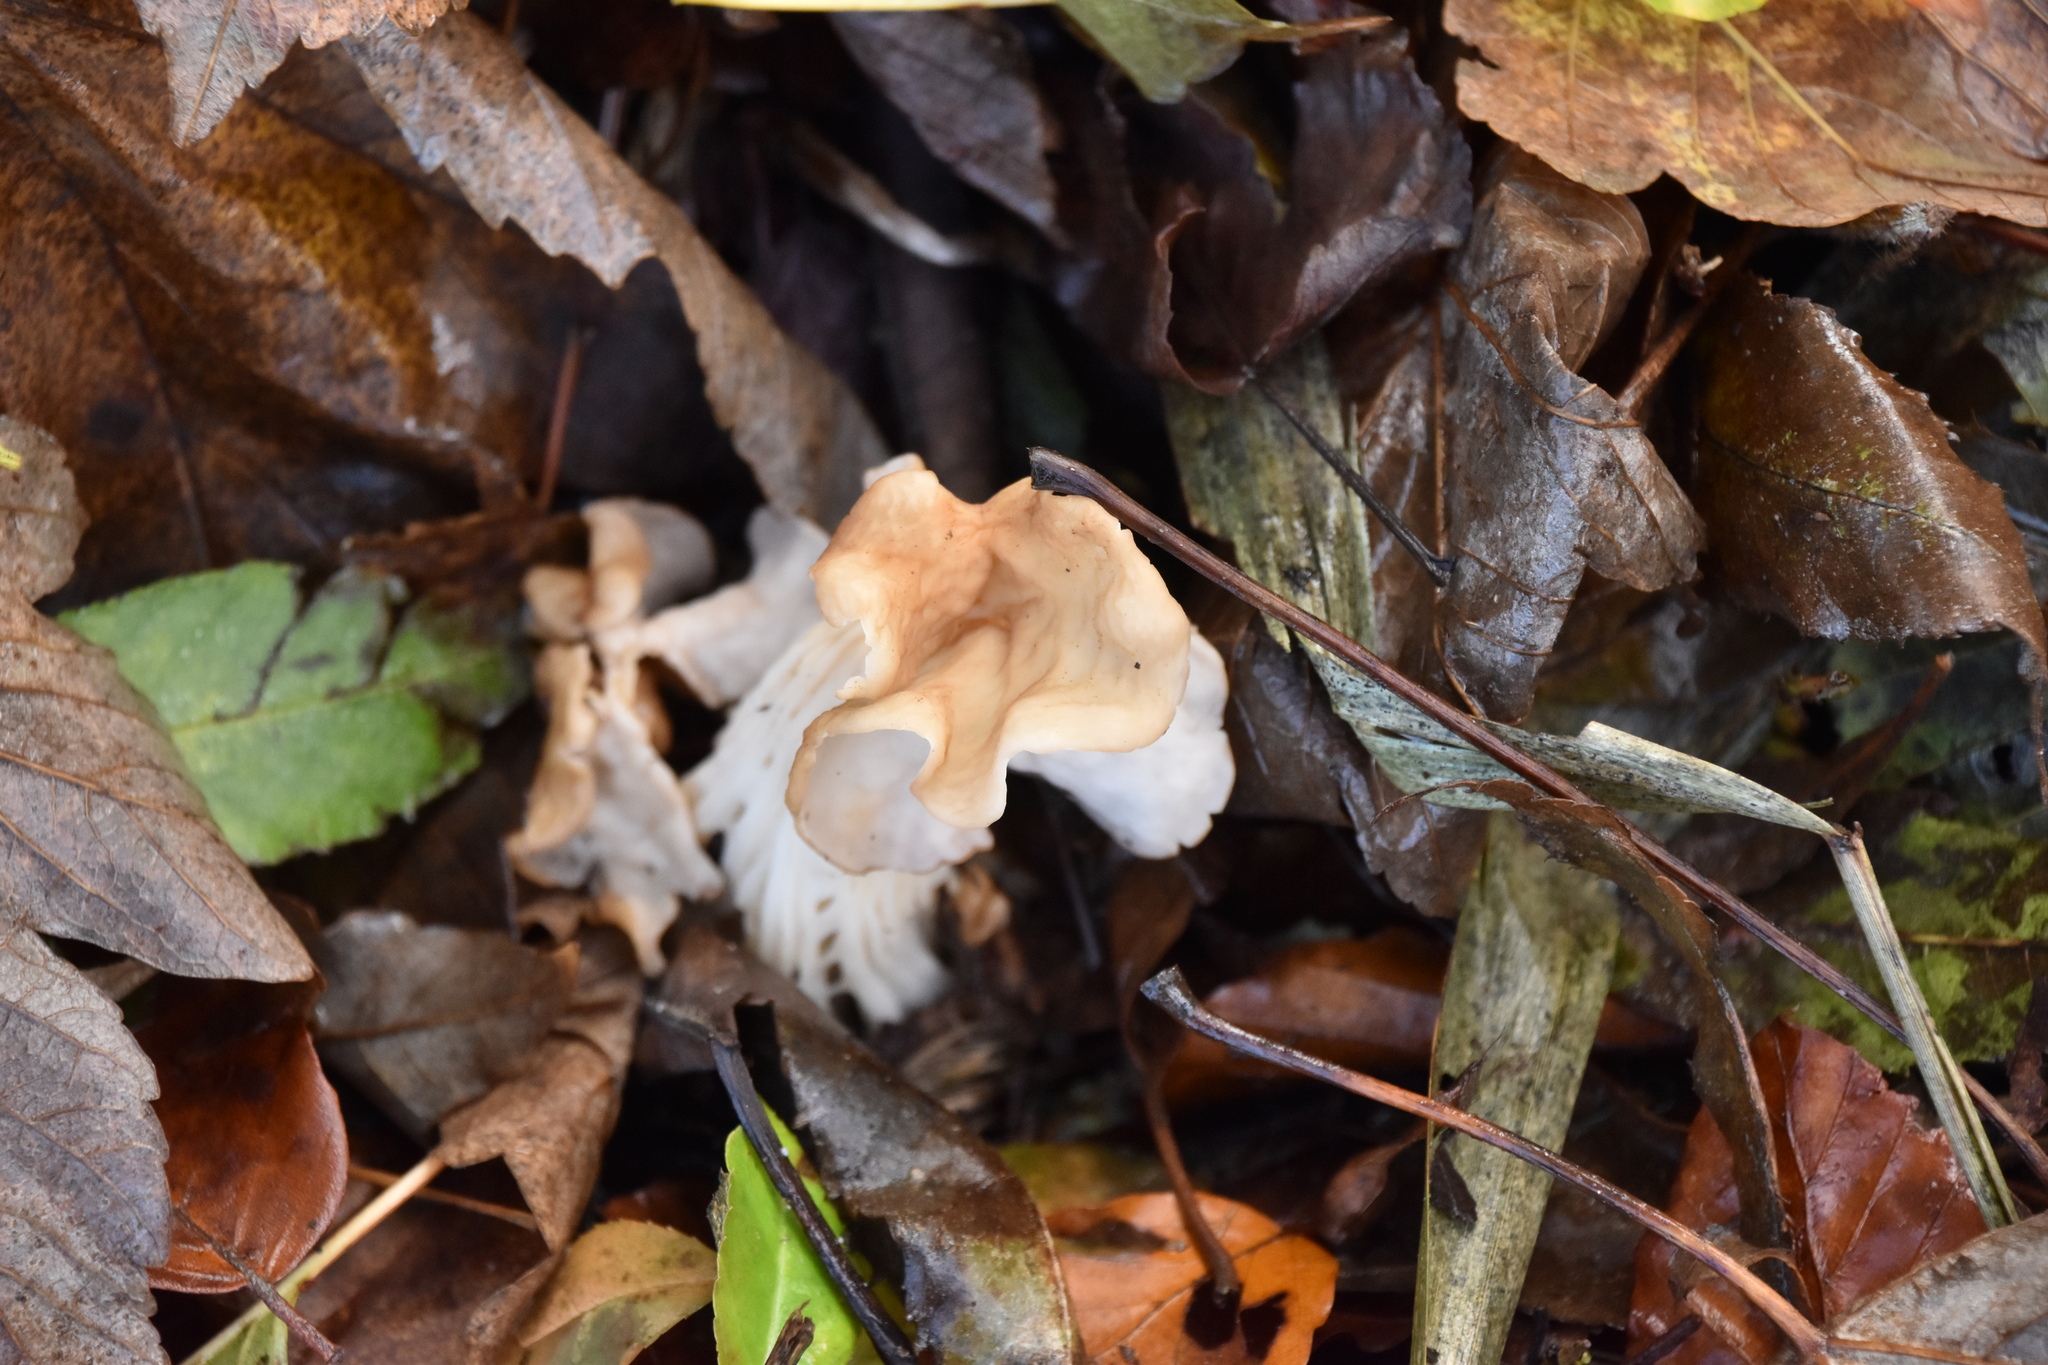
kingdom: Fungi
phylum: Ascomycota
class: Pezizomycetes
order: Pezizales
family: Helvellaceae
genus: Helvella
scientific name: Helvella crispa
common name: White saddle
